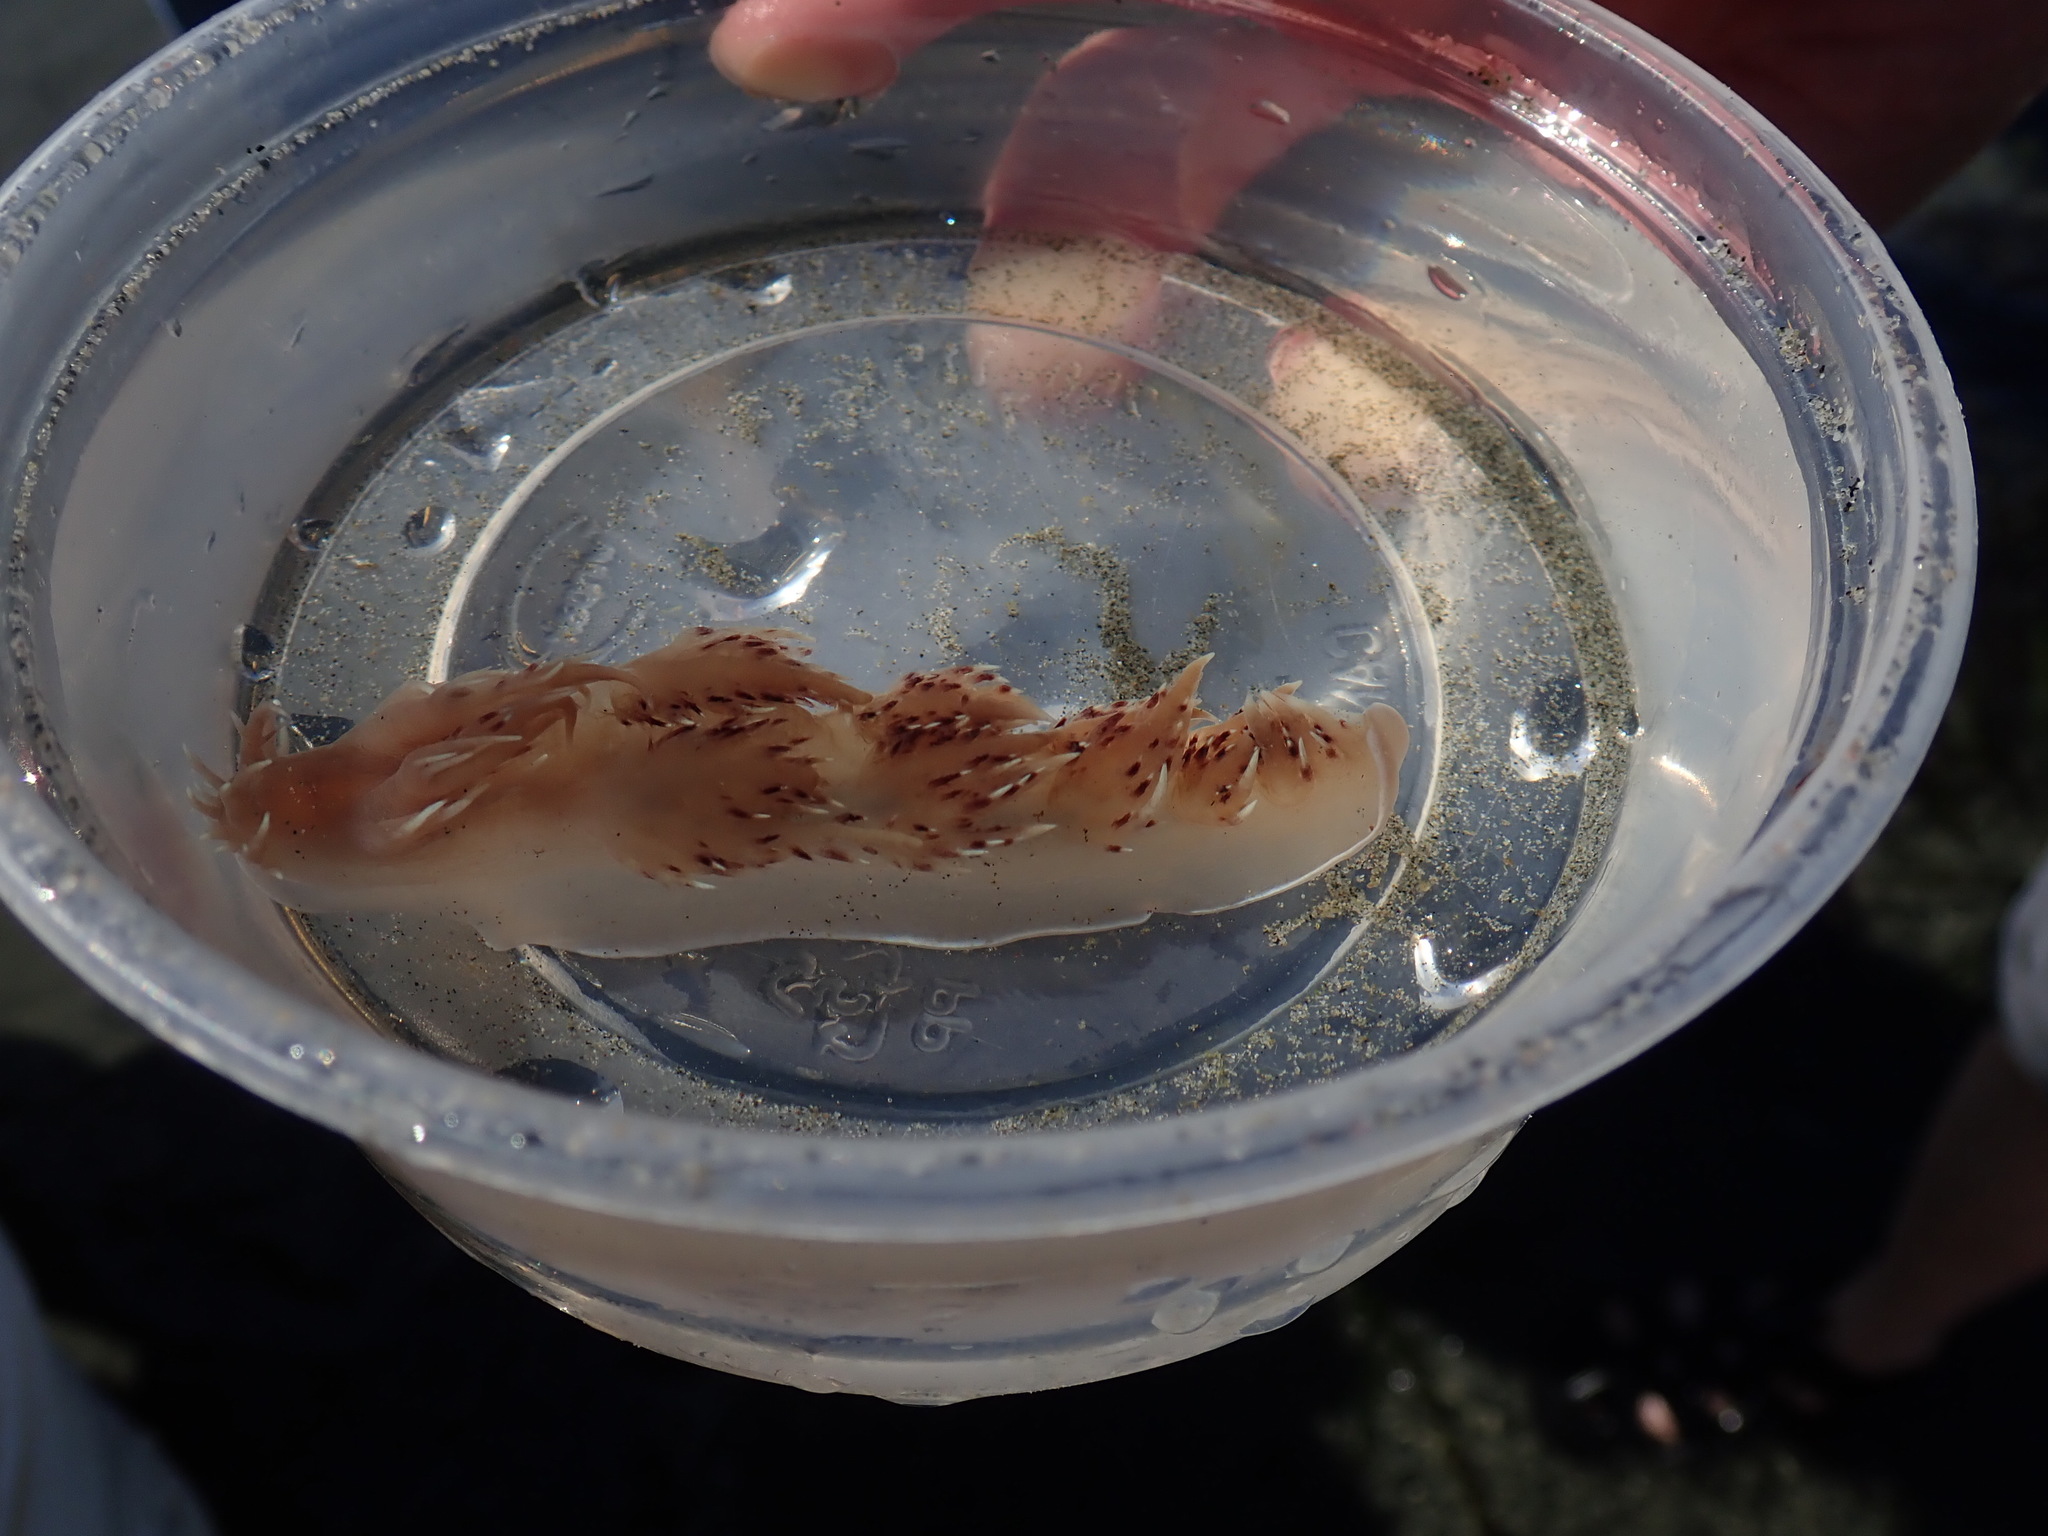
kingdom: Animalia
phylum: Mollusca
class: Gastropoda
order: Nudibranchia
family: Dendronotidae
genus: Dendronotus
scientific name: Dendronotus iris
